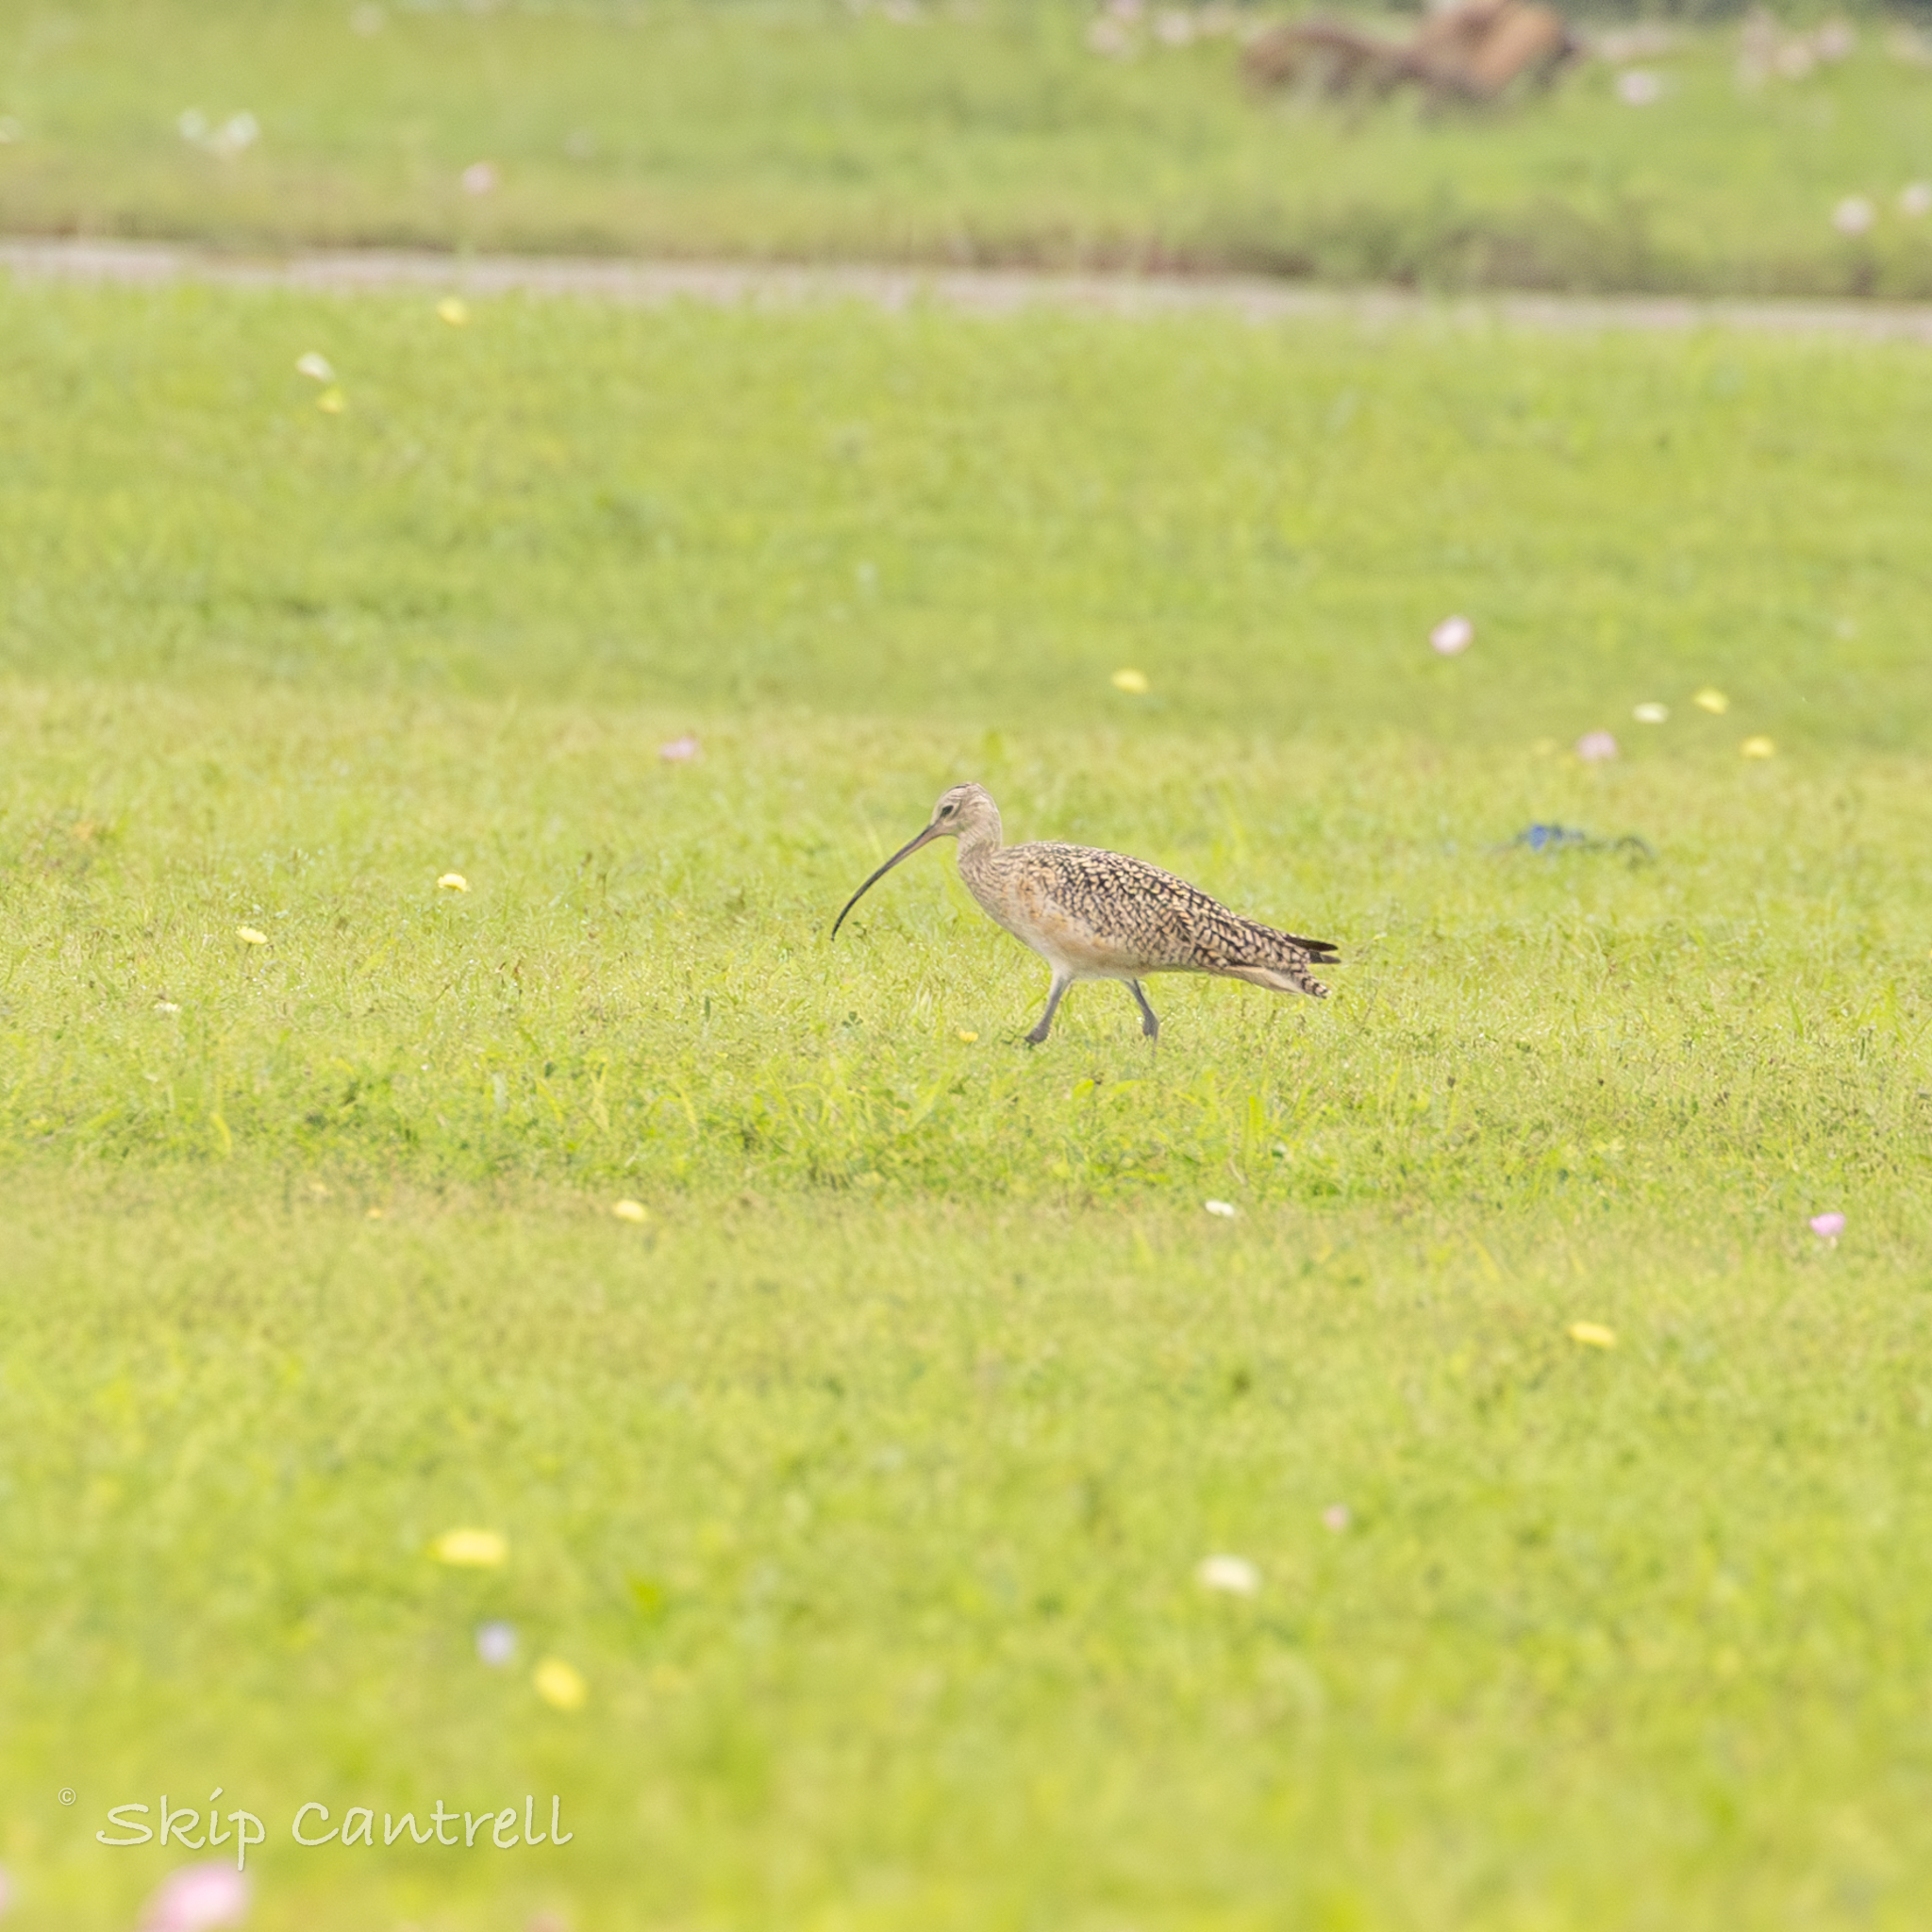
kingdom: Animalia
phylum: Chordata
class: Aves
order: Charadriiformes
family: Scolopacidae
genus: Numenius
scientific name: Numenius americanus
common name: Long-billed curlew
